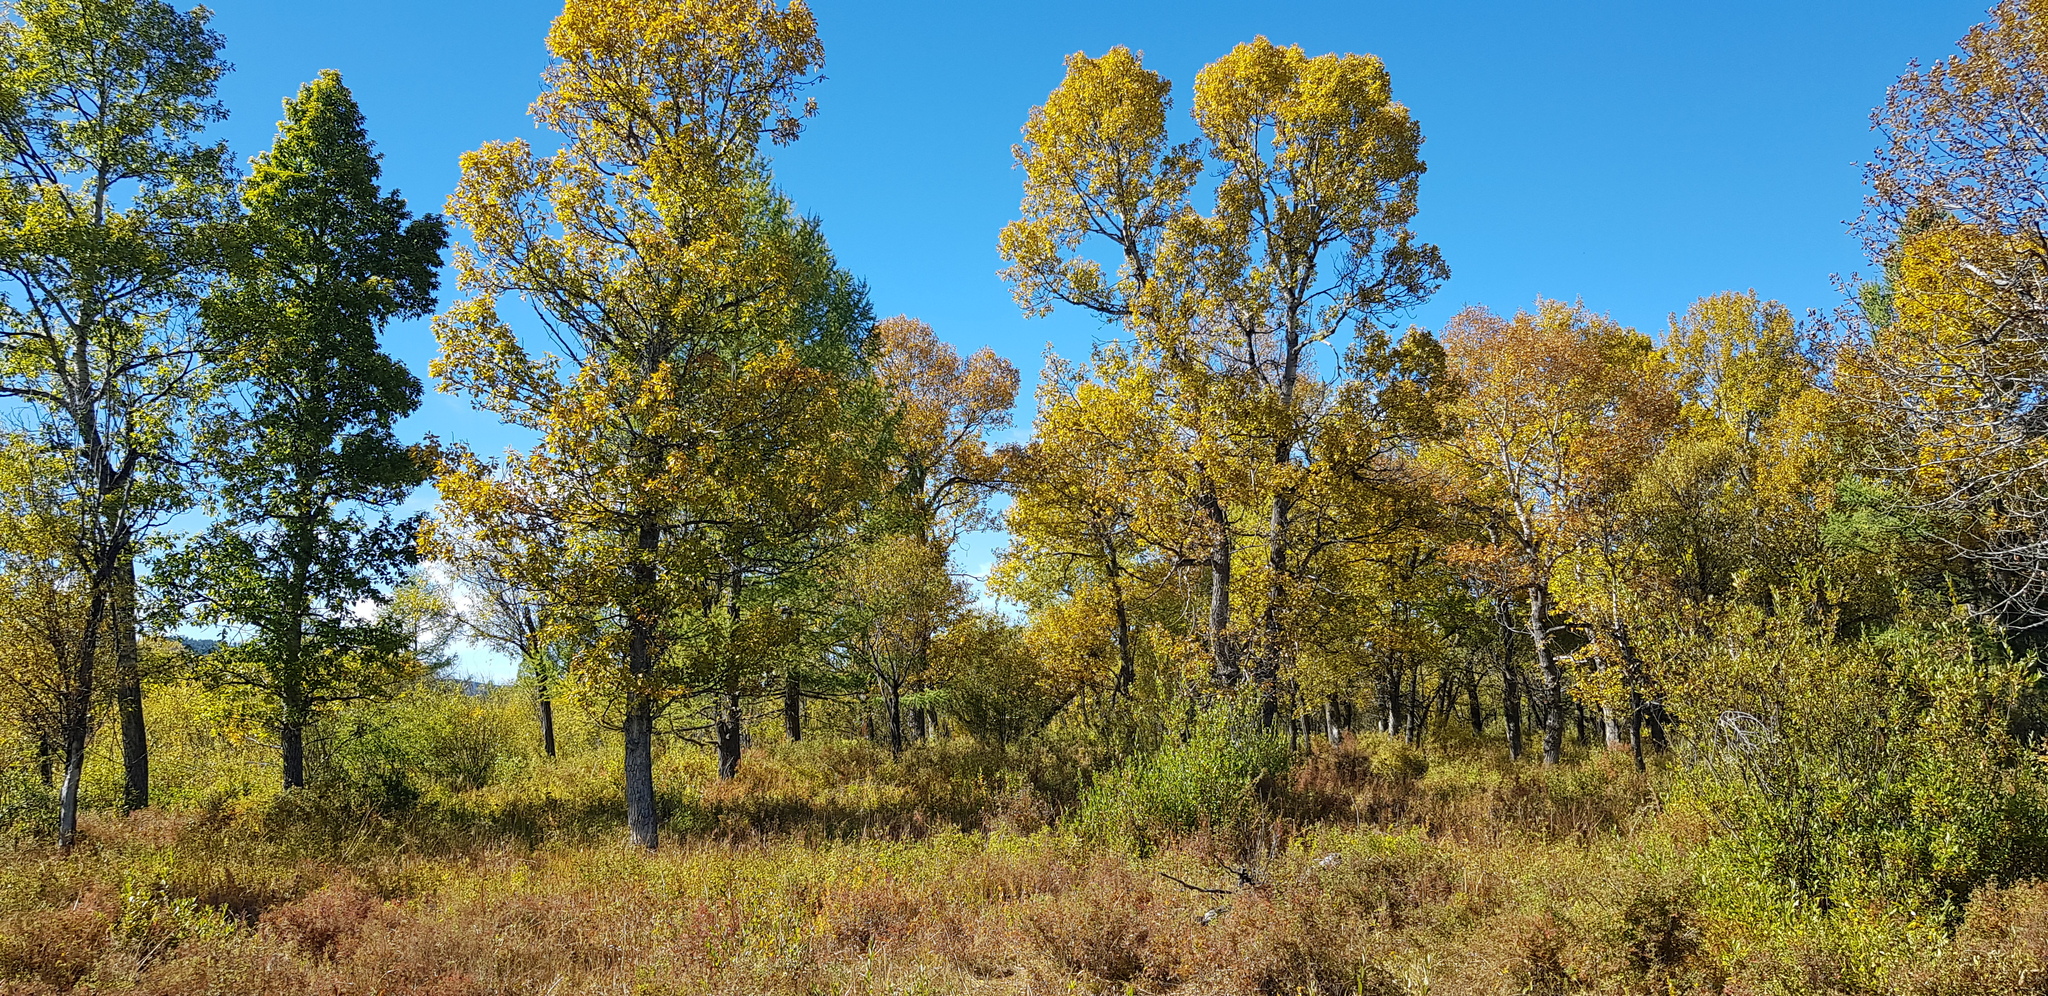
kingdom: Plantae
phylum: Tracheophyta
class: Magnoliopsida
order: Fagales
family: Betulaceae
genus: Betula
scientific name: Betula pendula
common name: Silver birch
